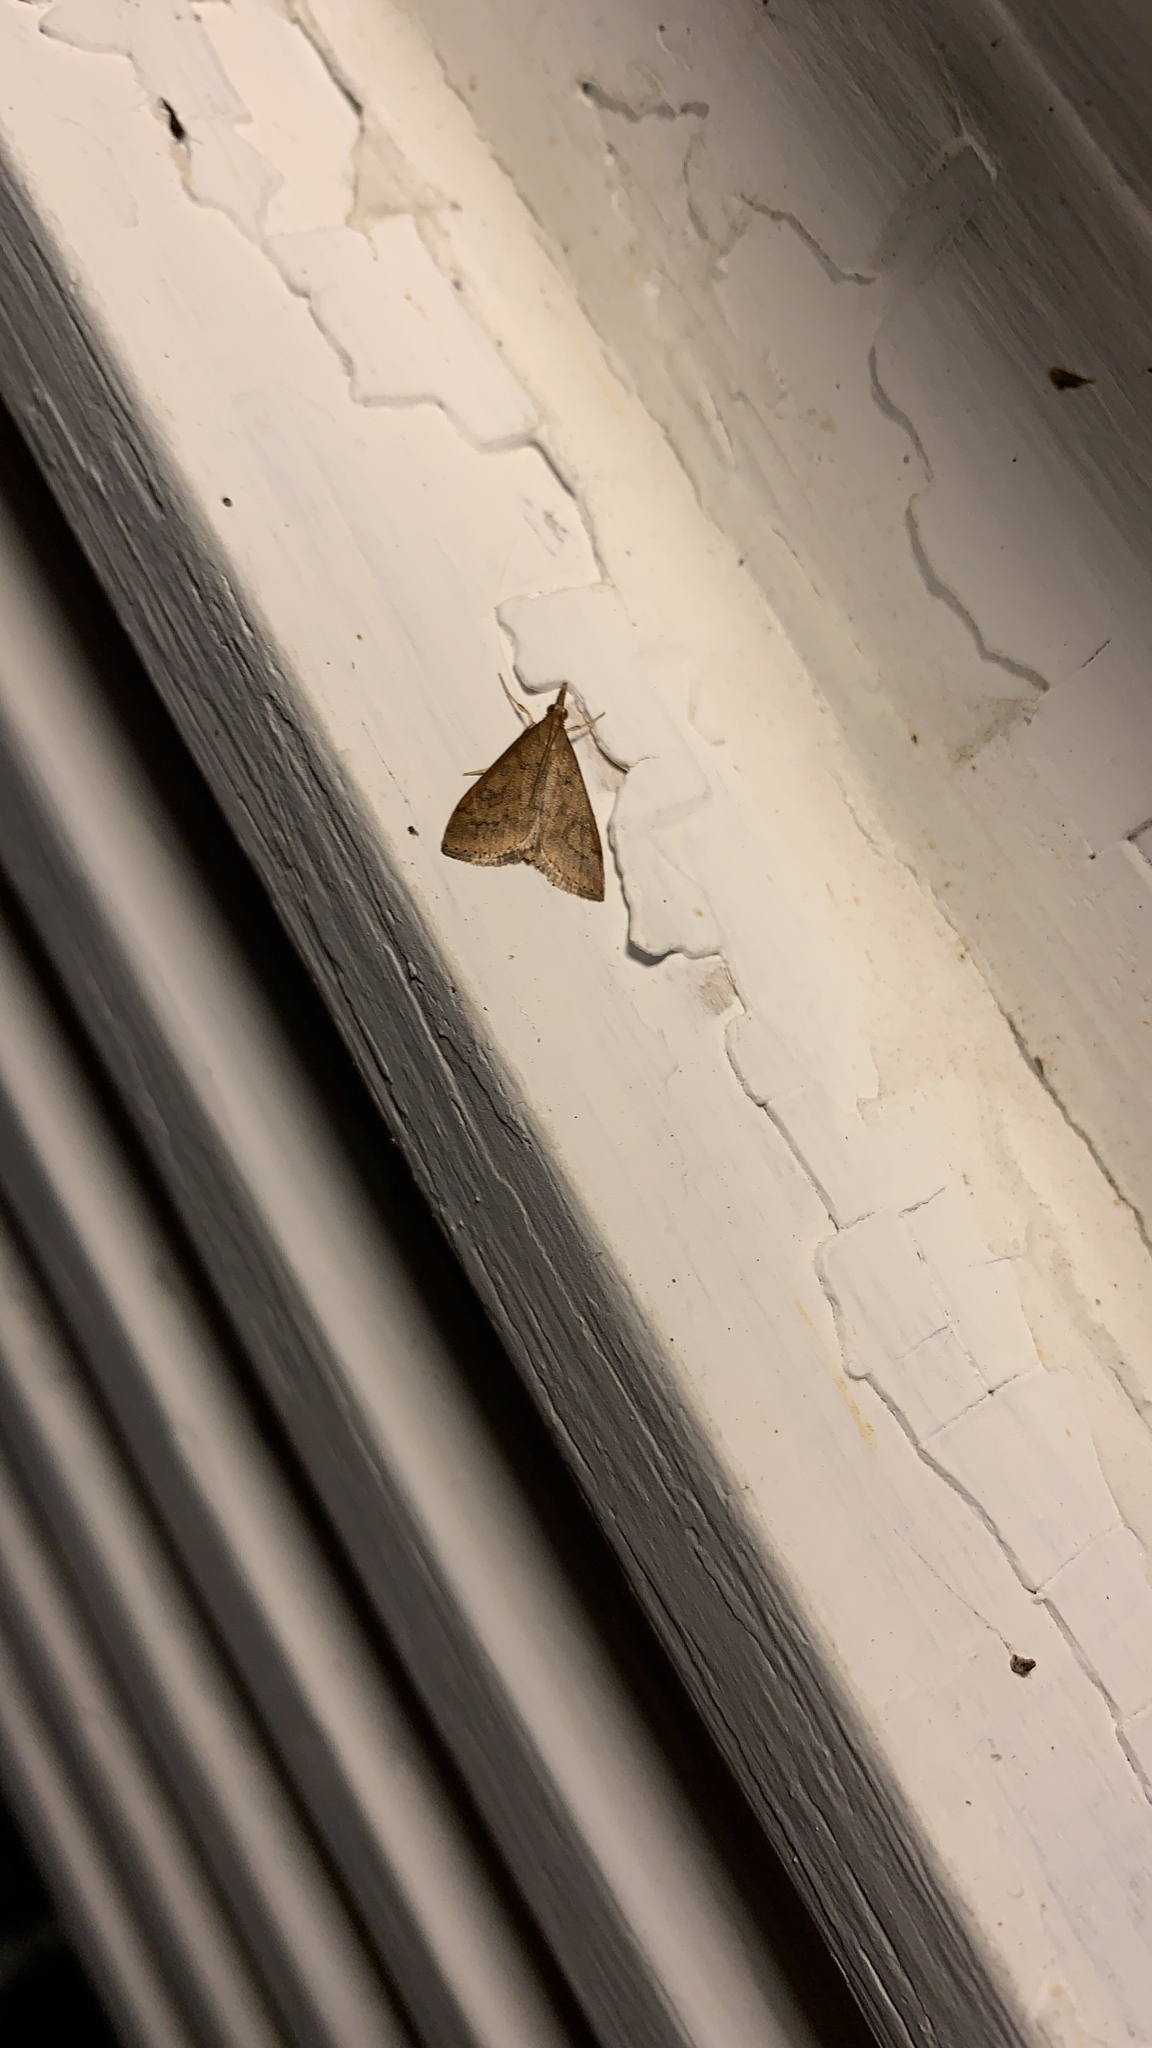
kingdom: Animalia
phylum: Arthropoda
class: Insecta
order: Lepidoptera
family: Crambidae
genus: Udea
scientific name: Udea rubigalis
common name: Celery leaftier moth
